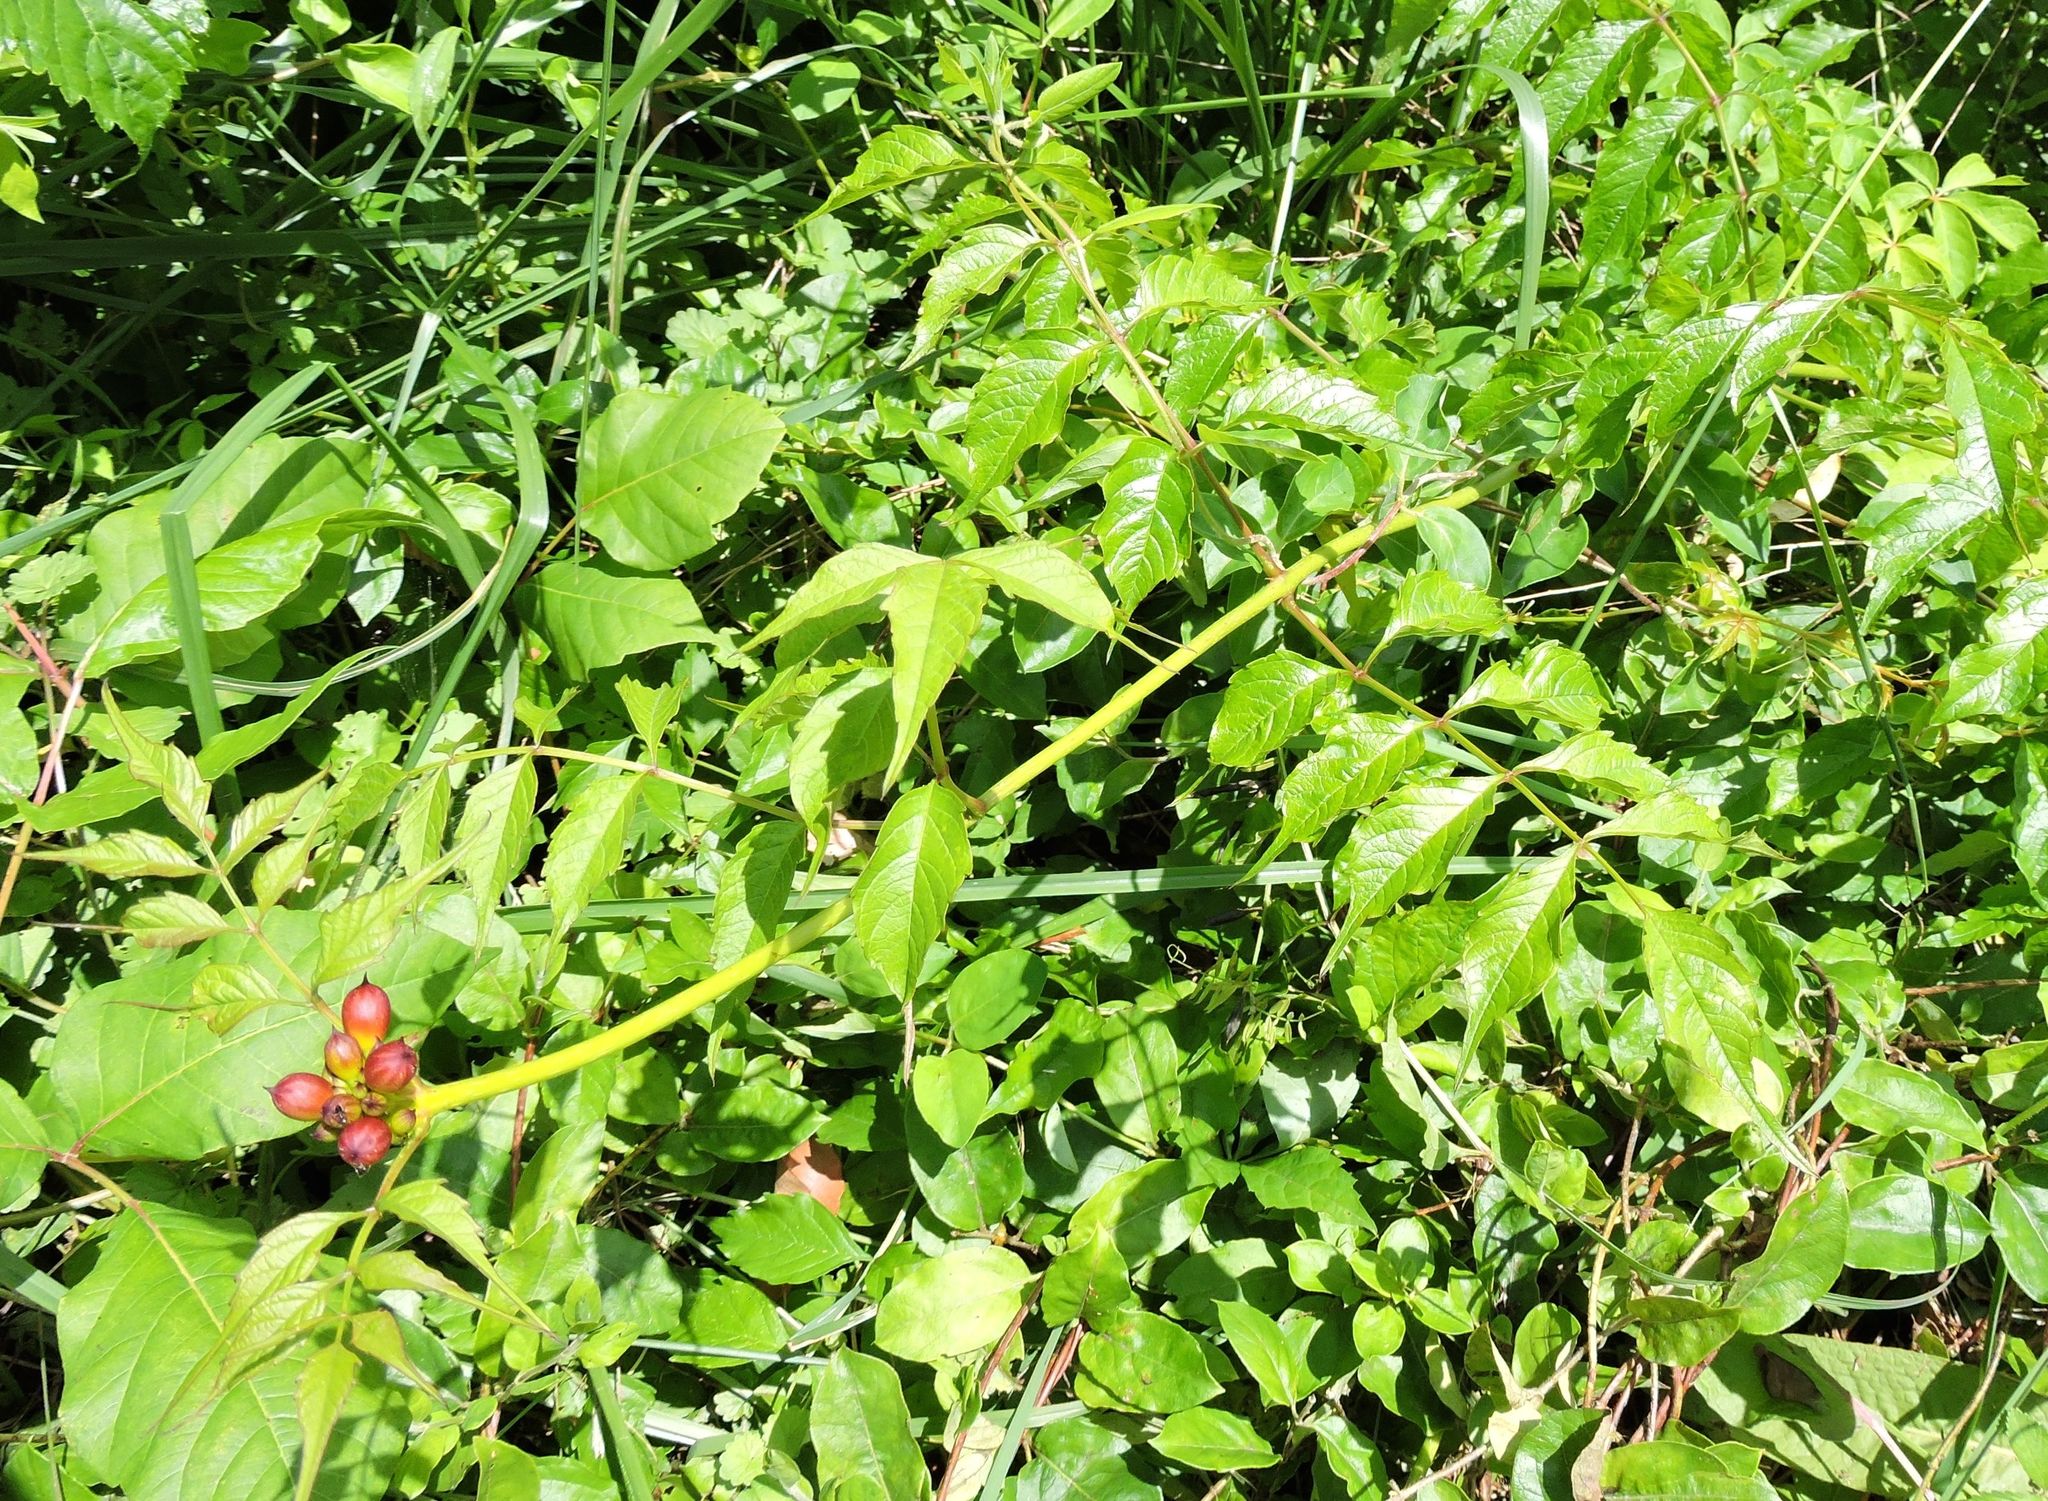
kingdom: Plantae
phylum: Tracheophyta
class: Magnoliopsida
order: Lamiales
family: Bignoniaceae
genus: Campsis
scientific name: Campsis radicans
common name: Trumpet-creeper
